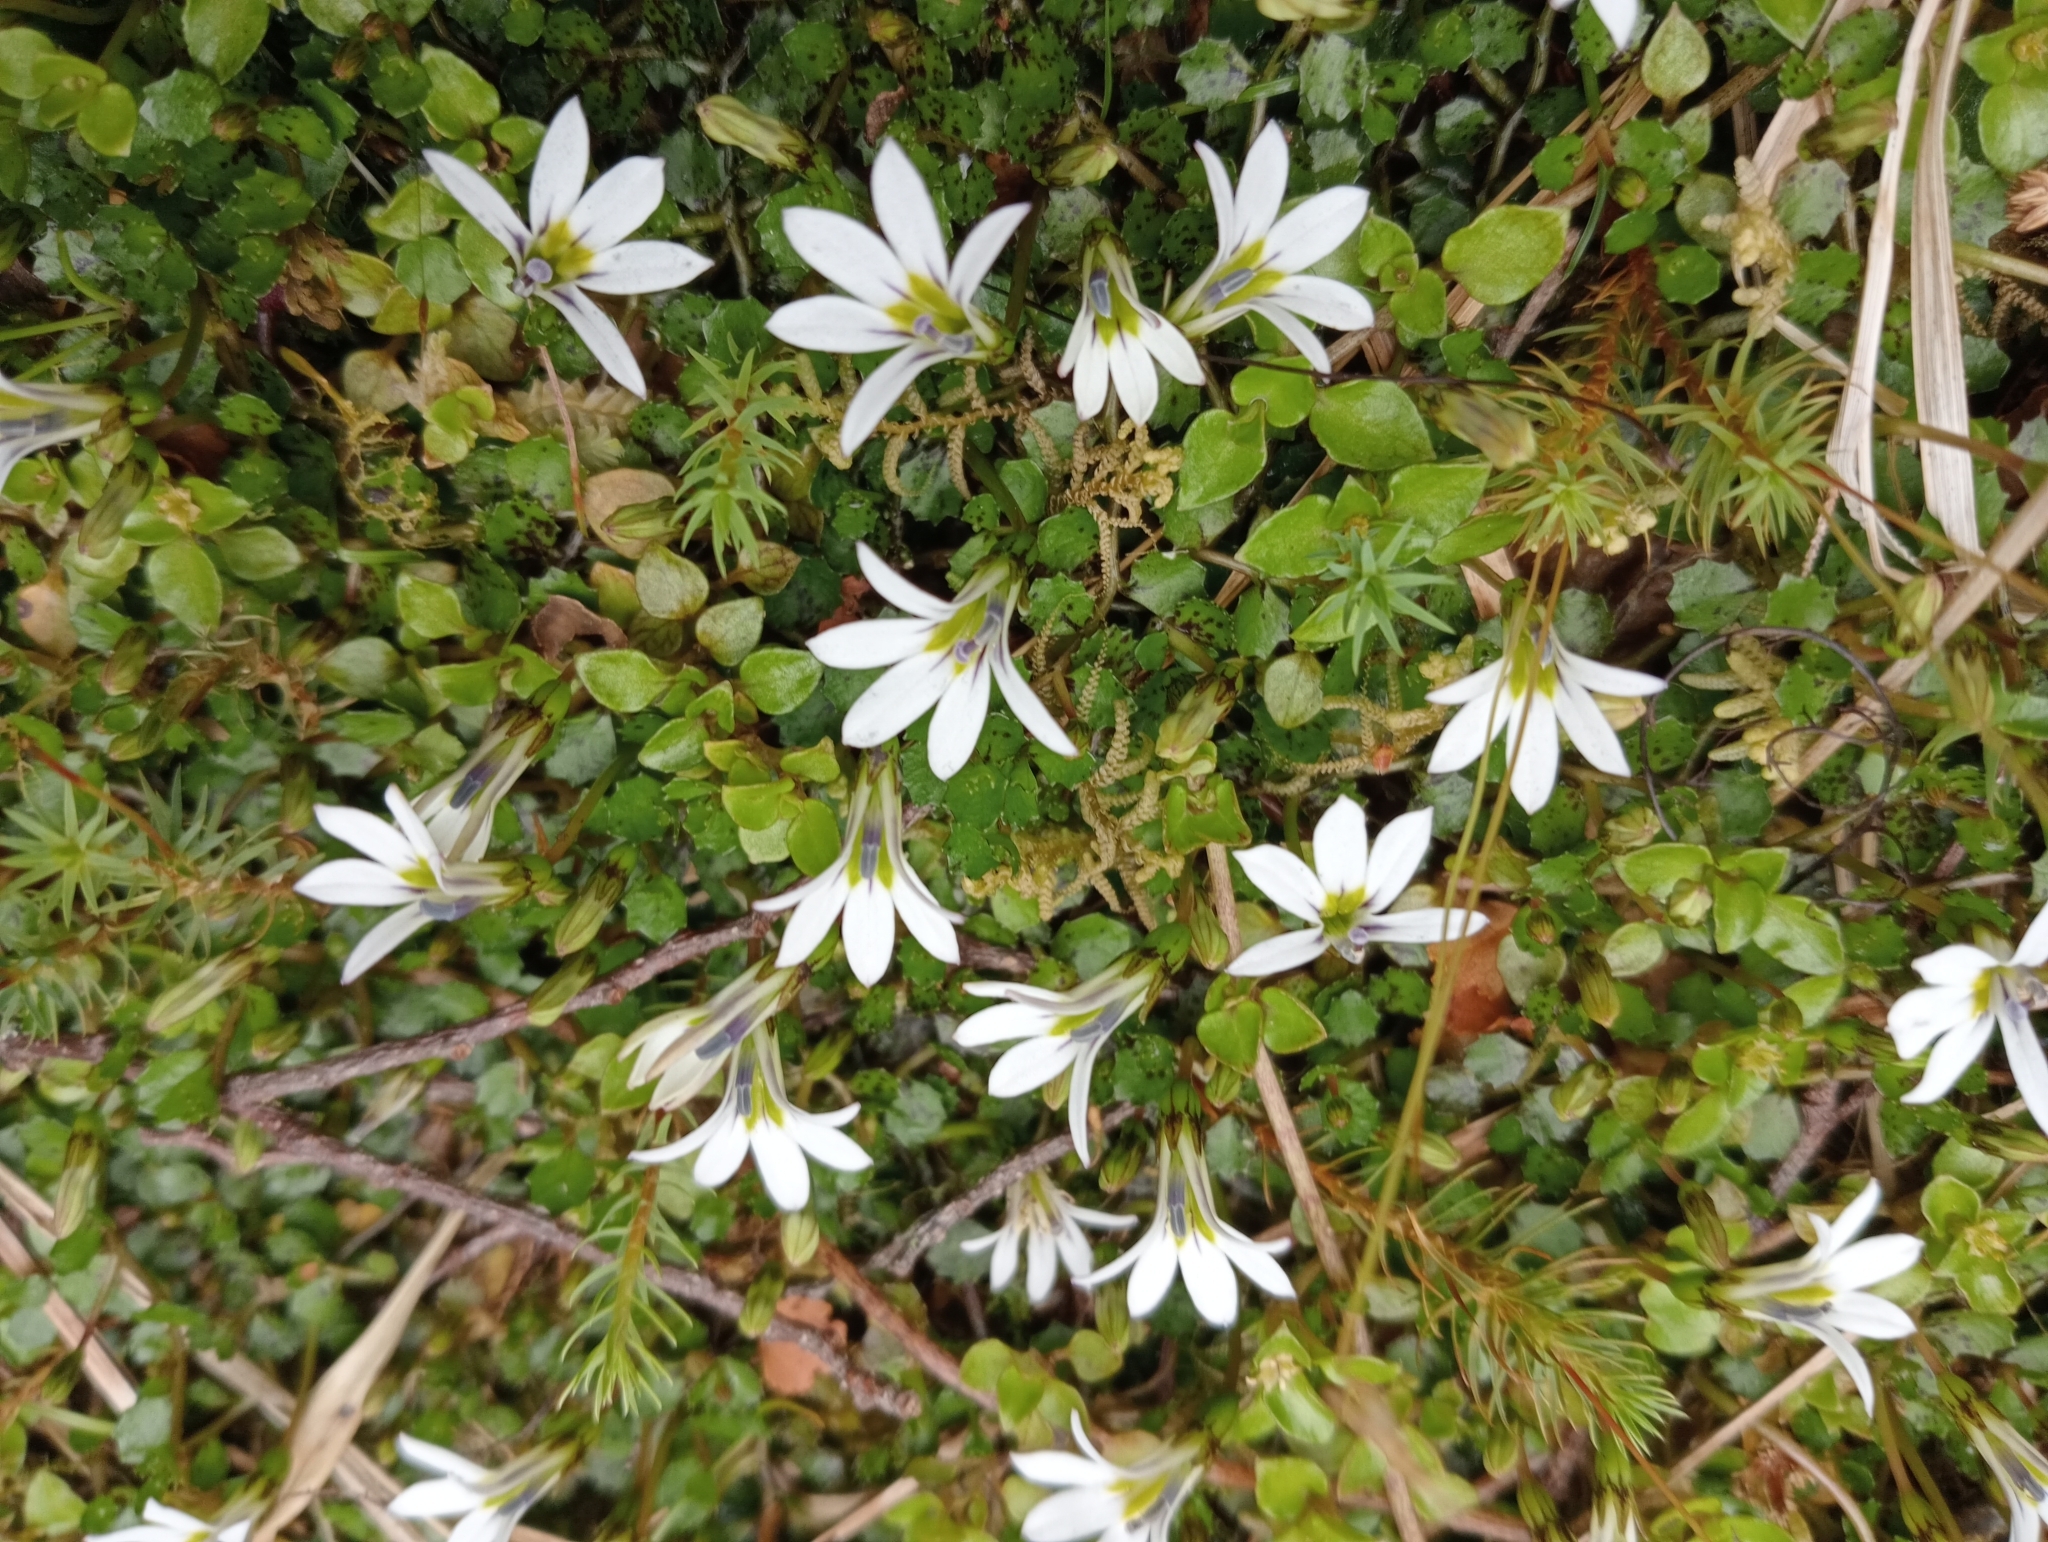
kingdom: Plantae
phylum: Tracheophyta
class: Magnoliopsida
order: Asterales
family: Campanulaceae
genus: Lobelia
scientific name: Lobelia angulata
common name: Lawn lobelia
